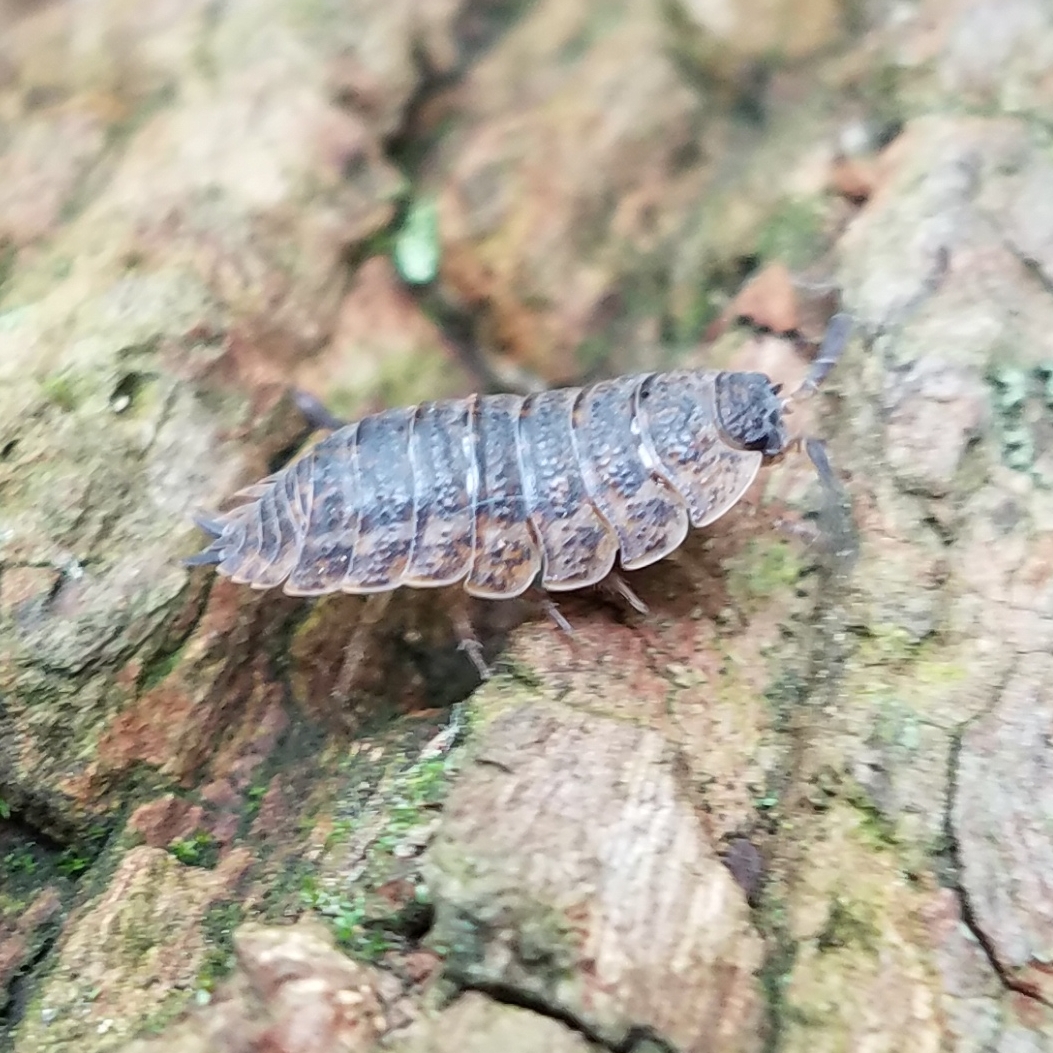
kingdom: Animalia
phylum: Arthropoda
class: Malacostraca
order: Isopoda
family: Trachelipodidae
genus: Trachelipus
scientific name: Trachelipus rathkii
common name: Isopod
